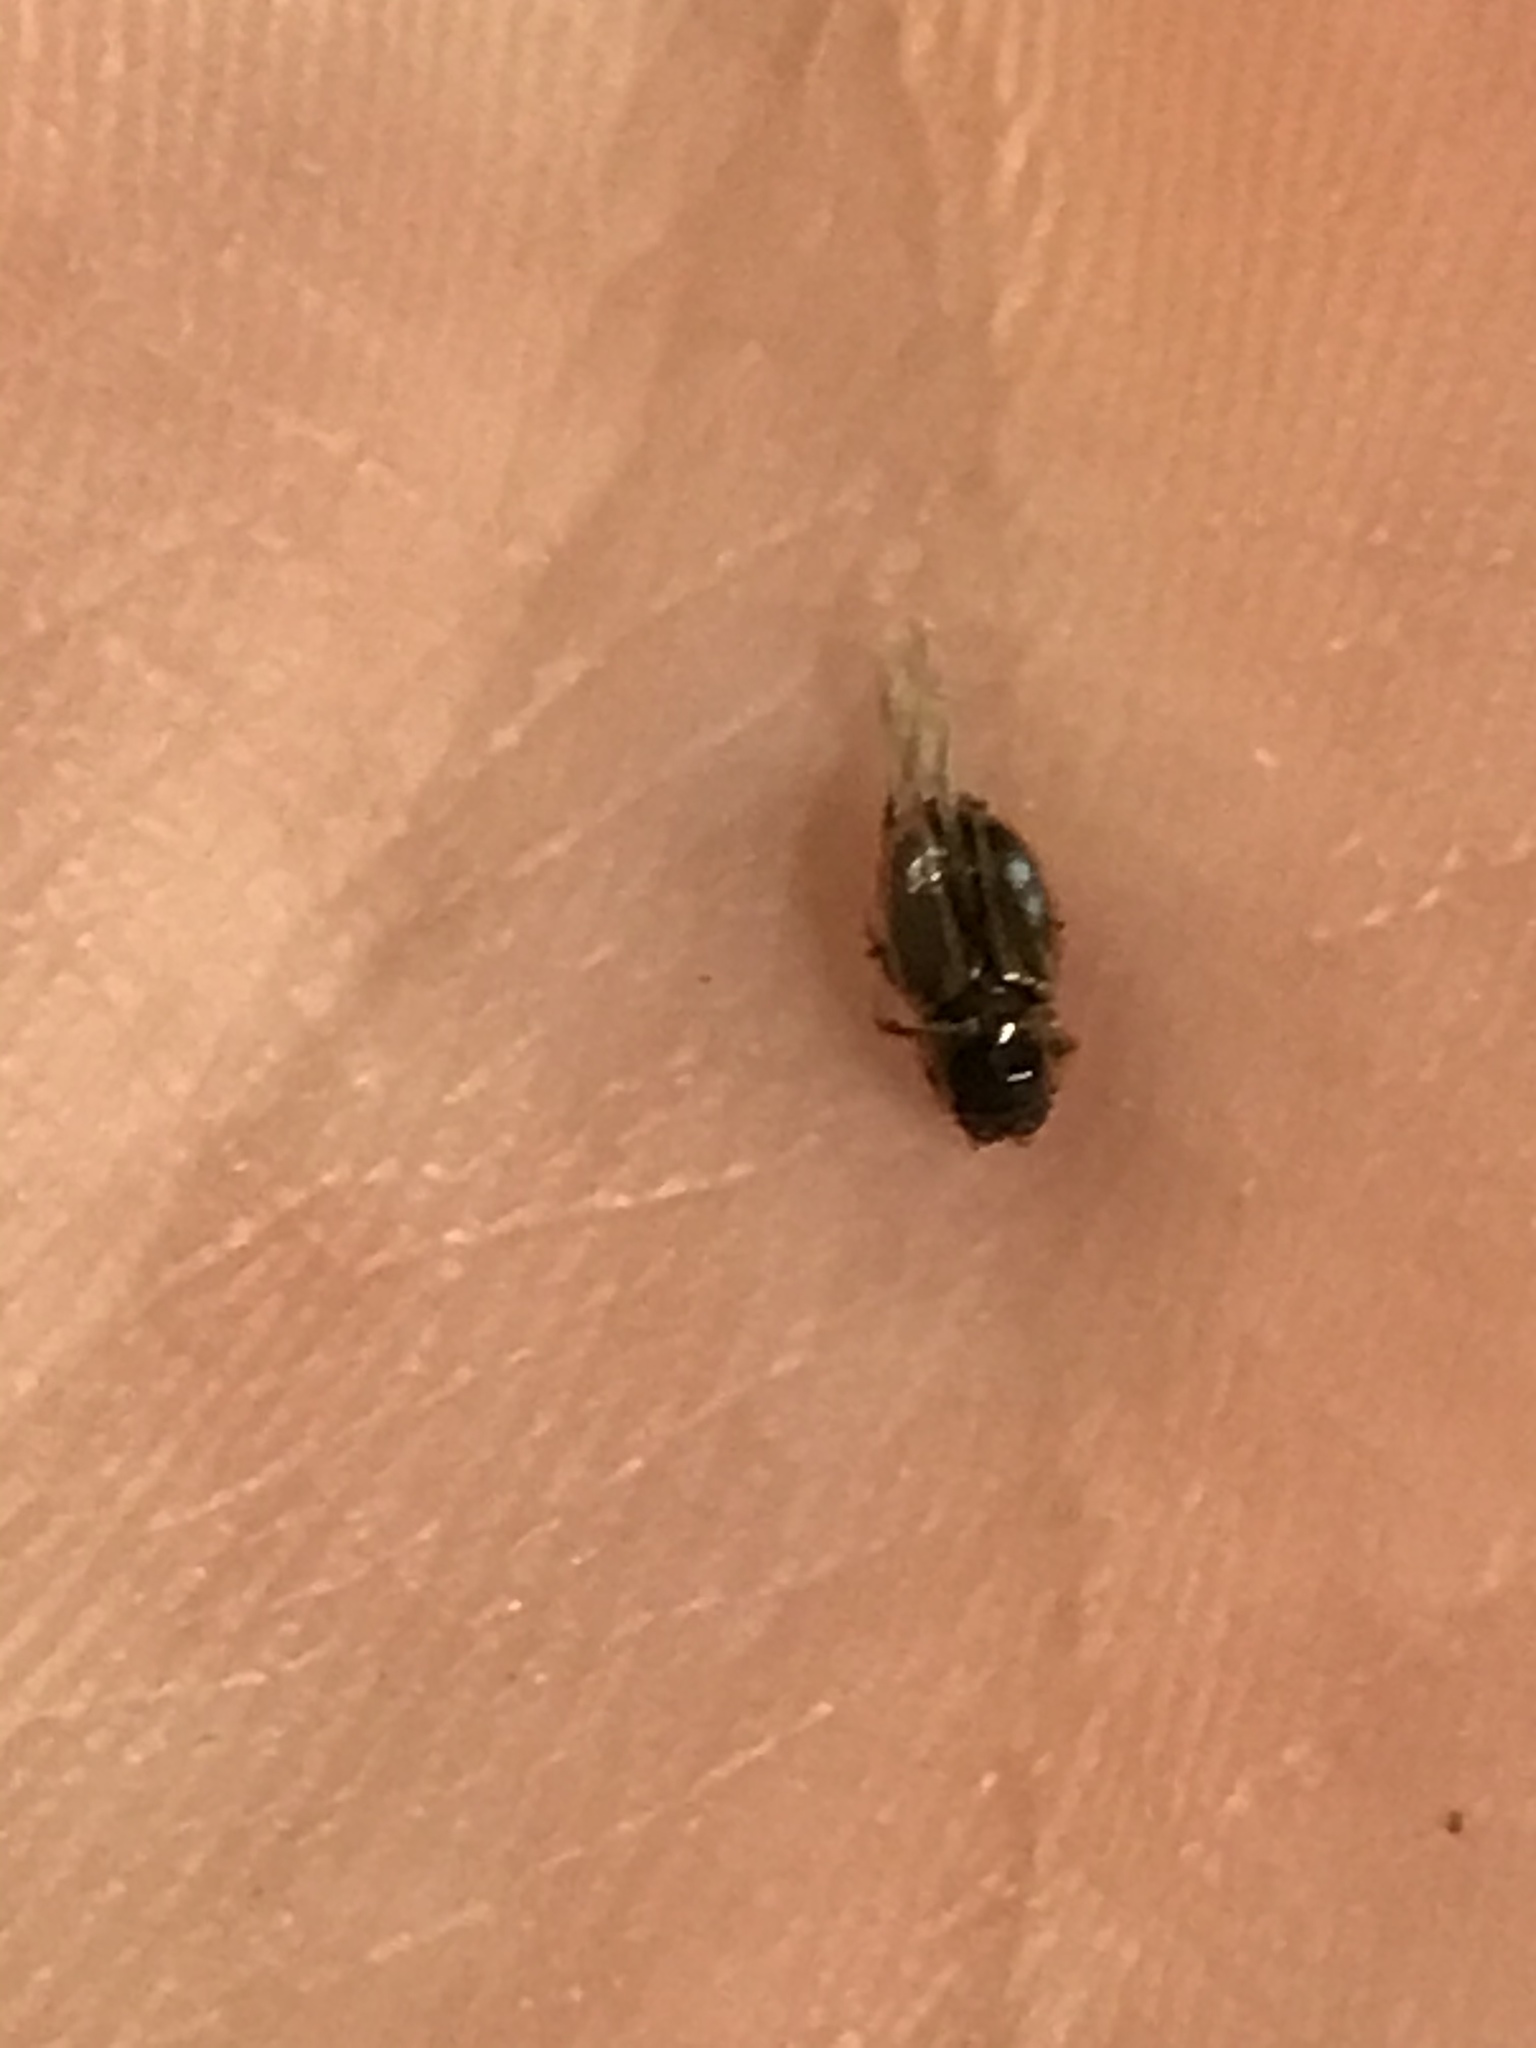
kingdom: Animalia
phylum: Arthropoda
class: Insecta
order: Coleoptera
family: Scarabaeidae
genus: Labarrus
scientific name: Labarrus lividus
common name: Scarab beetle
